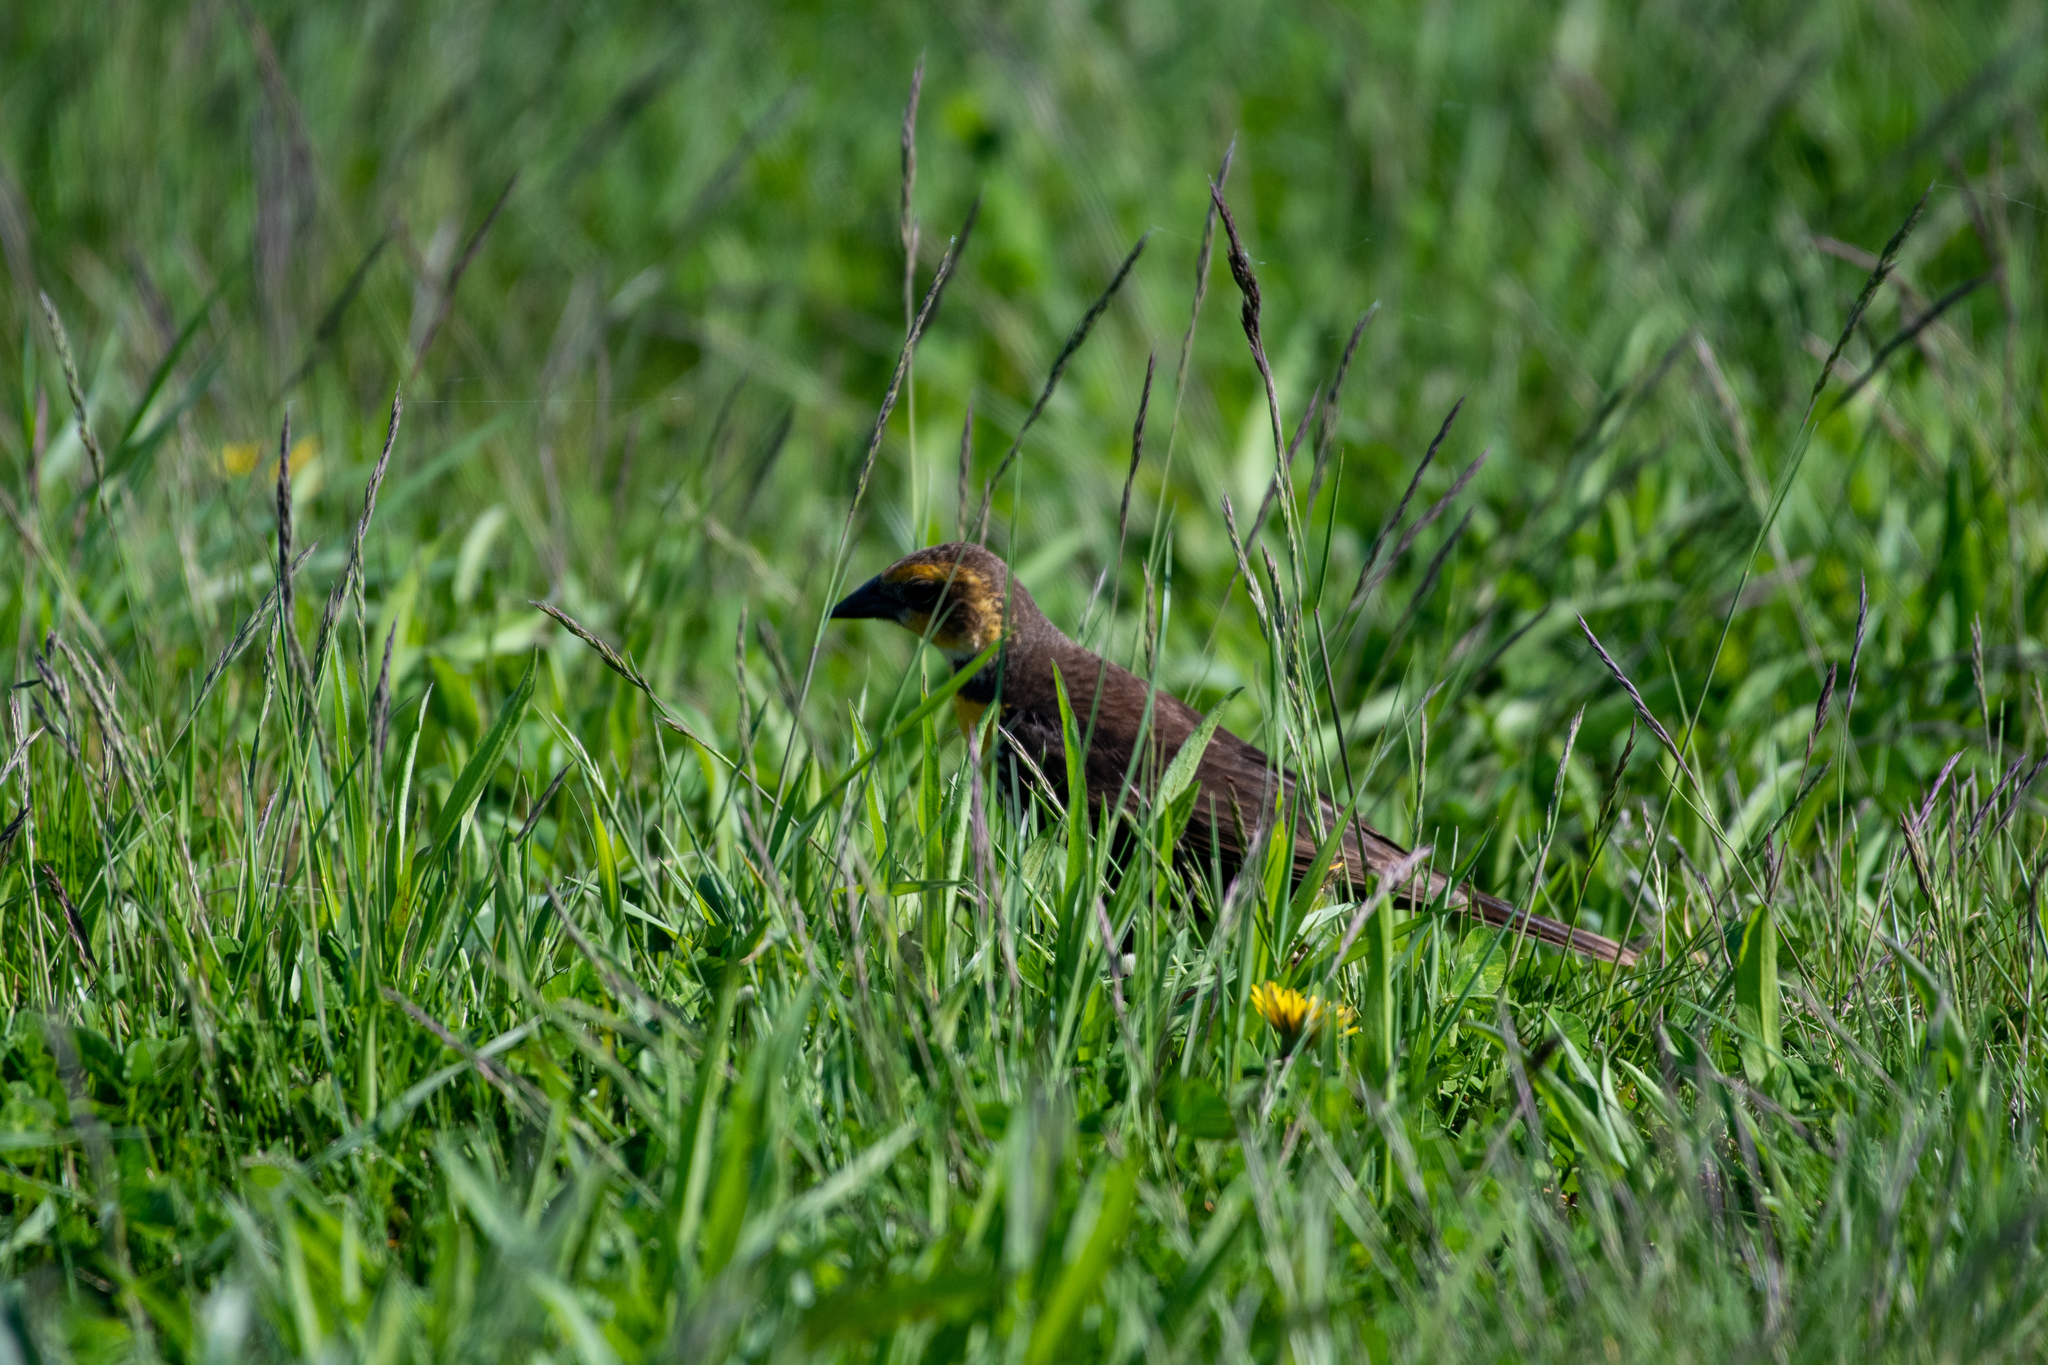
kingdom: Animalia
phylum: Chordata
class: Aves
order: Passeriformes
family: Icteridae
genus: Xanthocephalus
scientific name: Xanthocephalus xanthocephalus
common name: Yellow-headed blackbird
